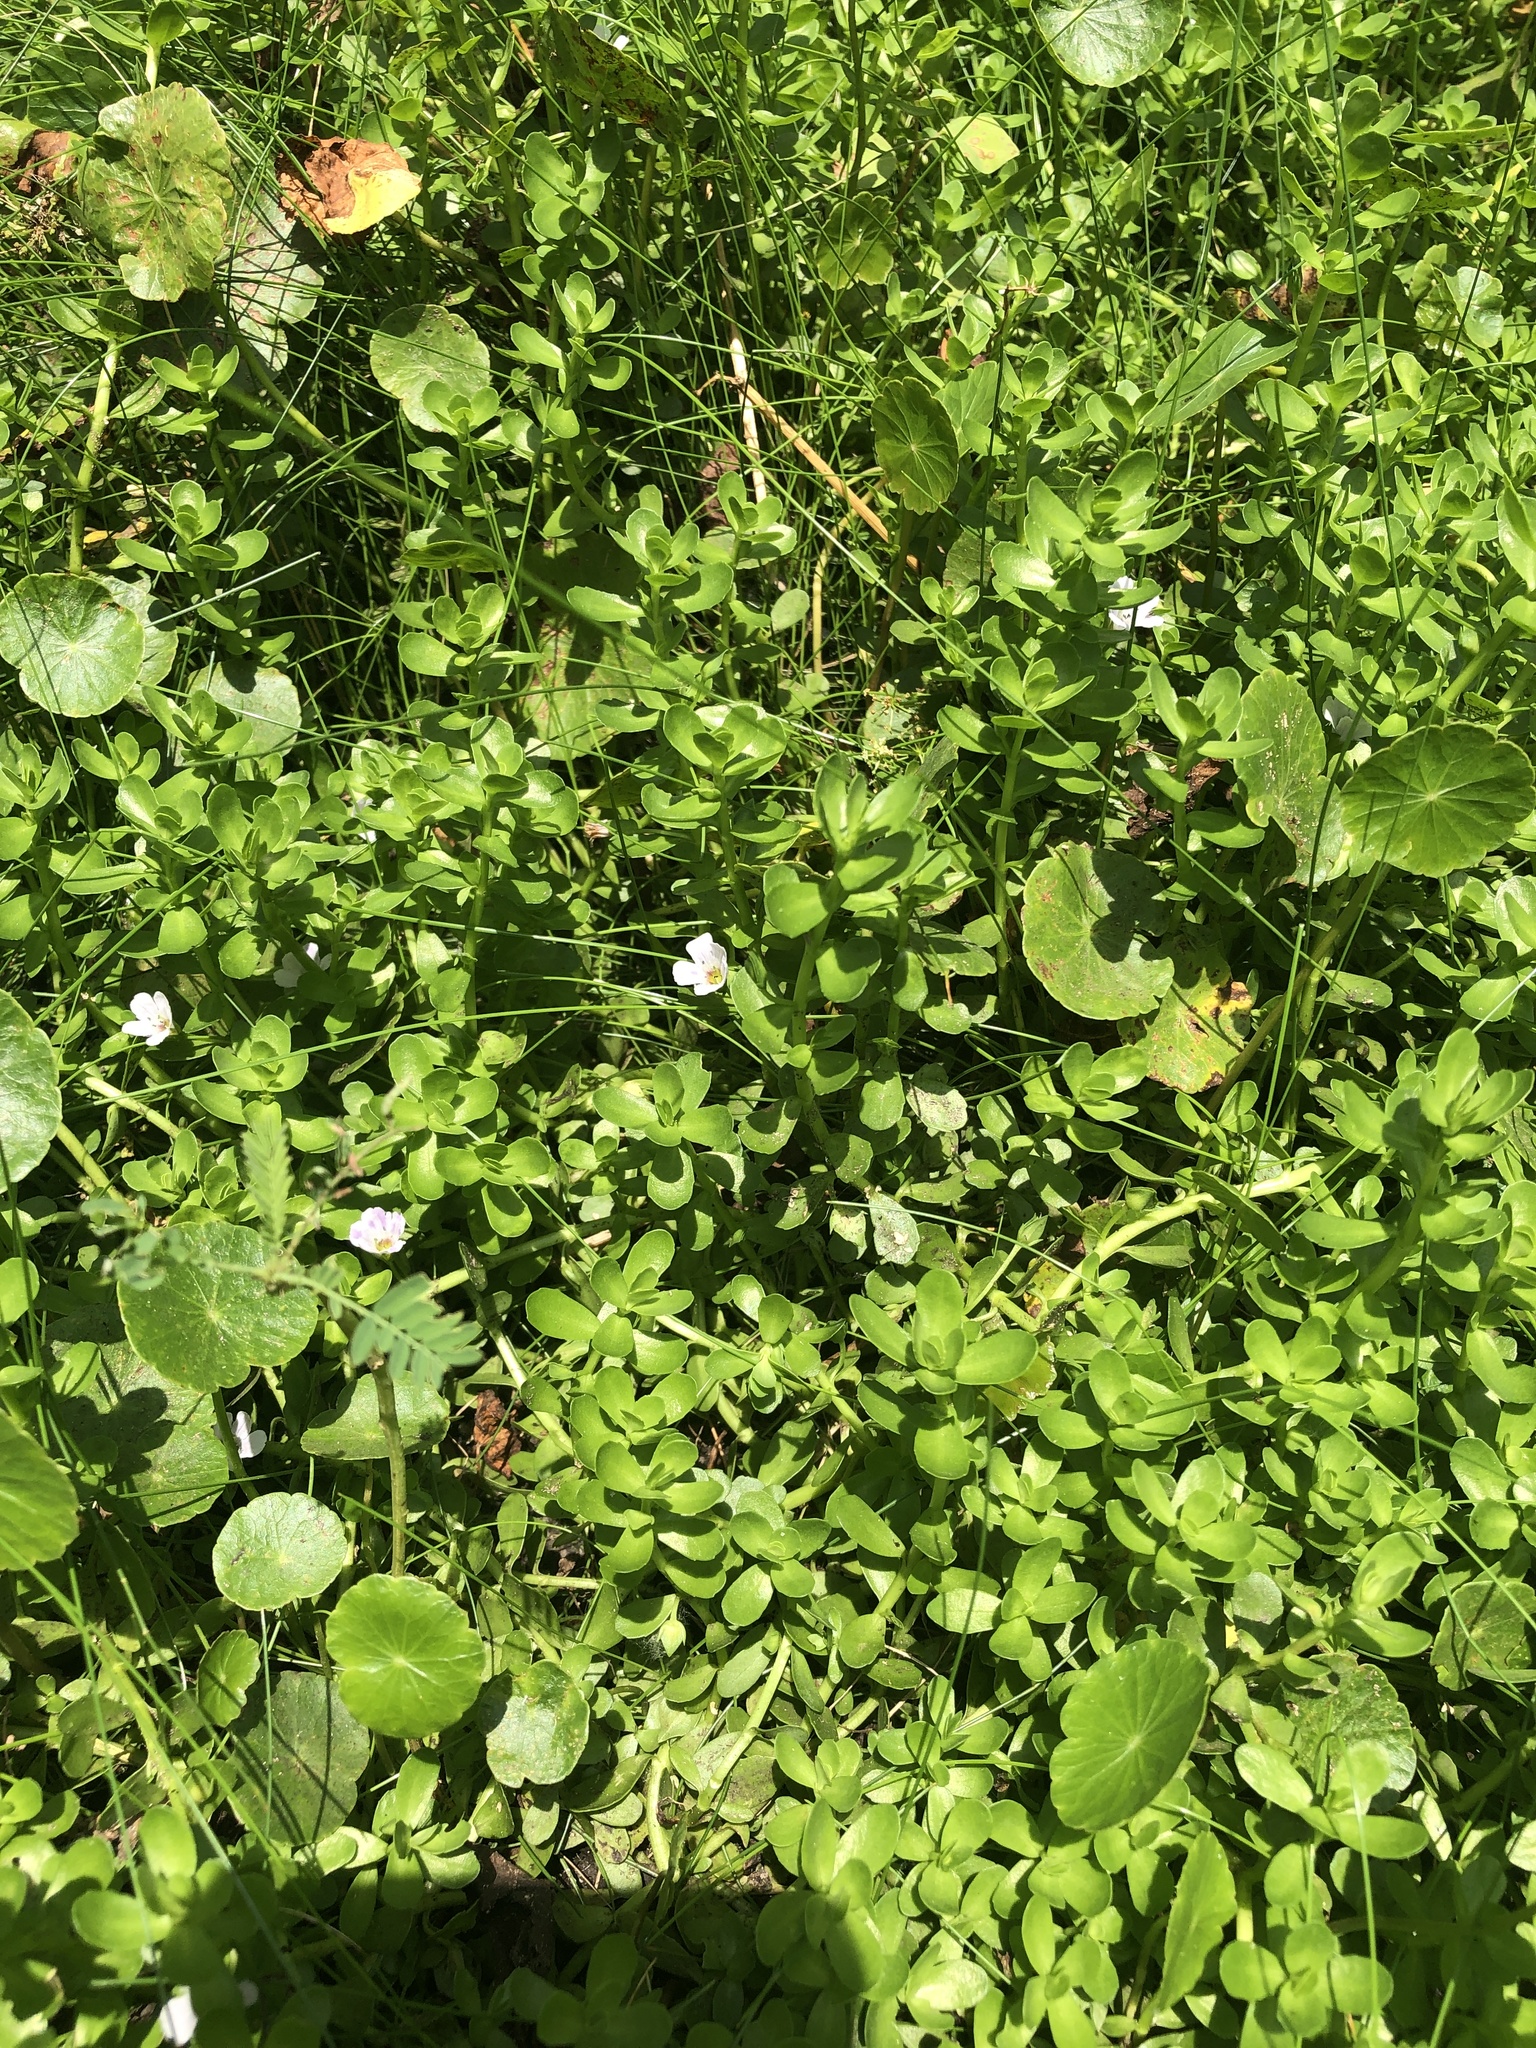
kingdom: Plantae
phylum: Tracheophyta
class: Magnoliopsida
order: Lamiales
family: Plantaginaceae
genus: Bacopa
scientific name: Bacopa monnieri
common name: Indian-pennywort
